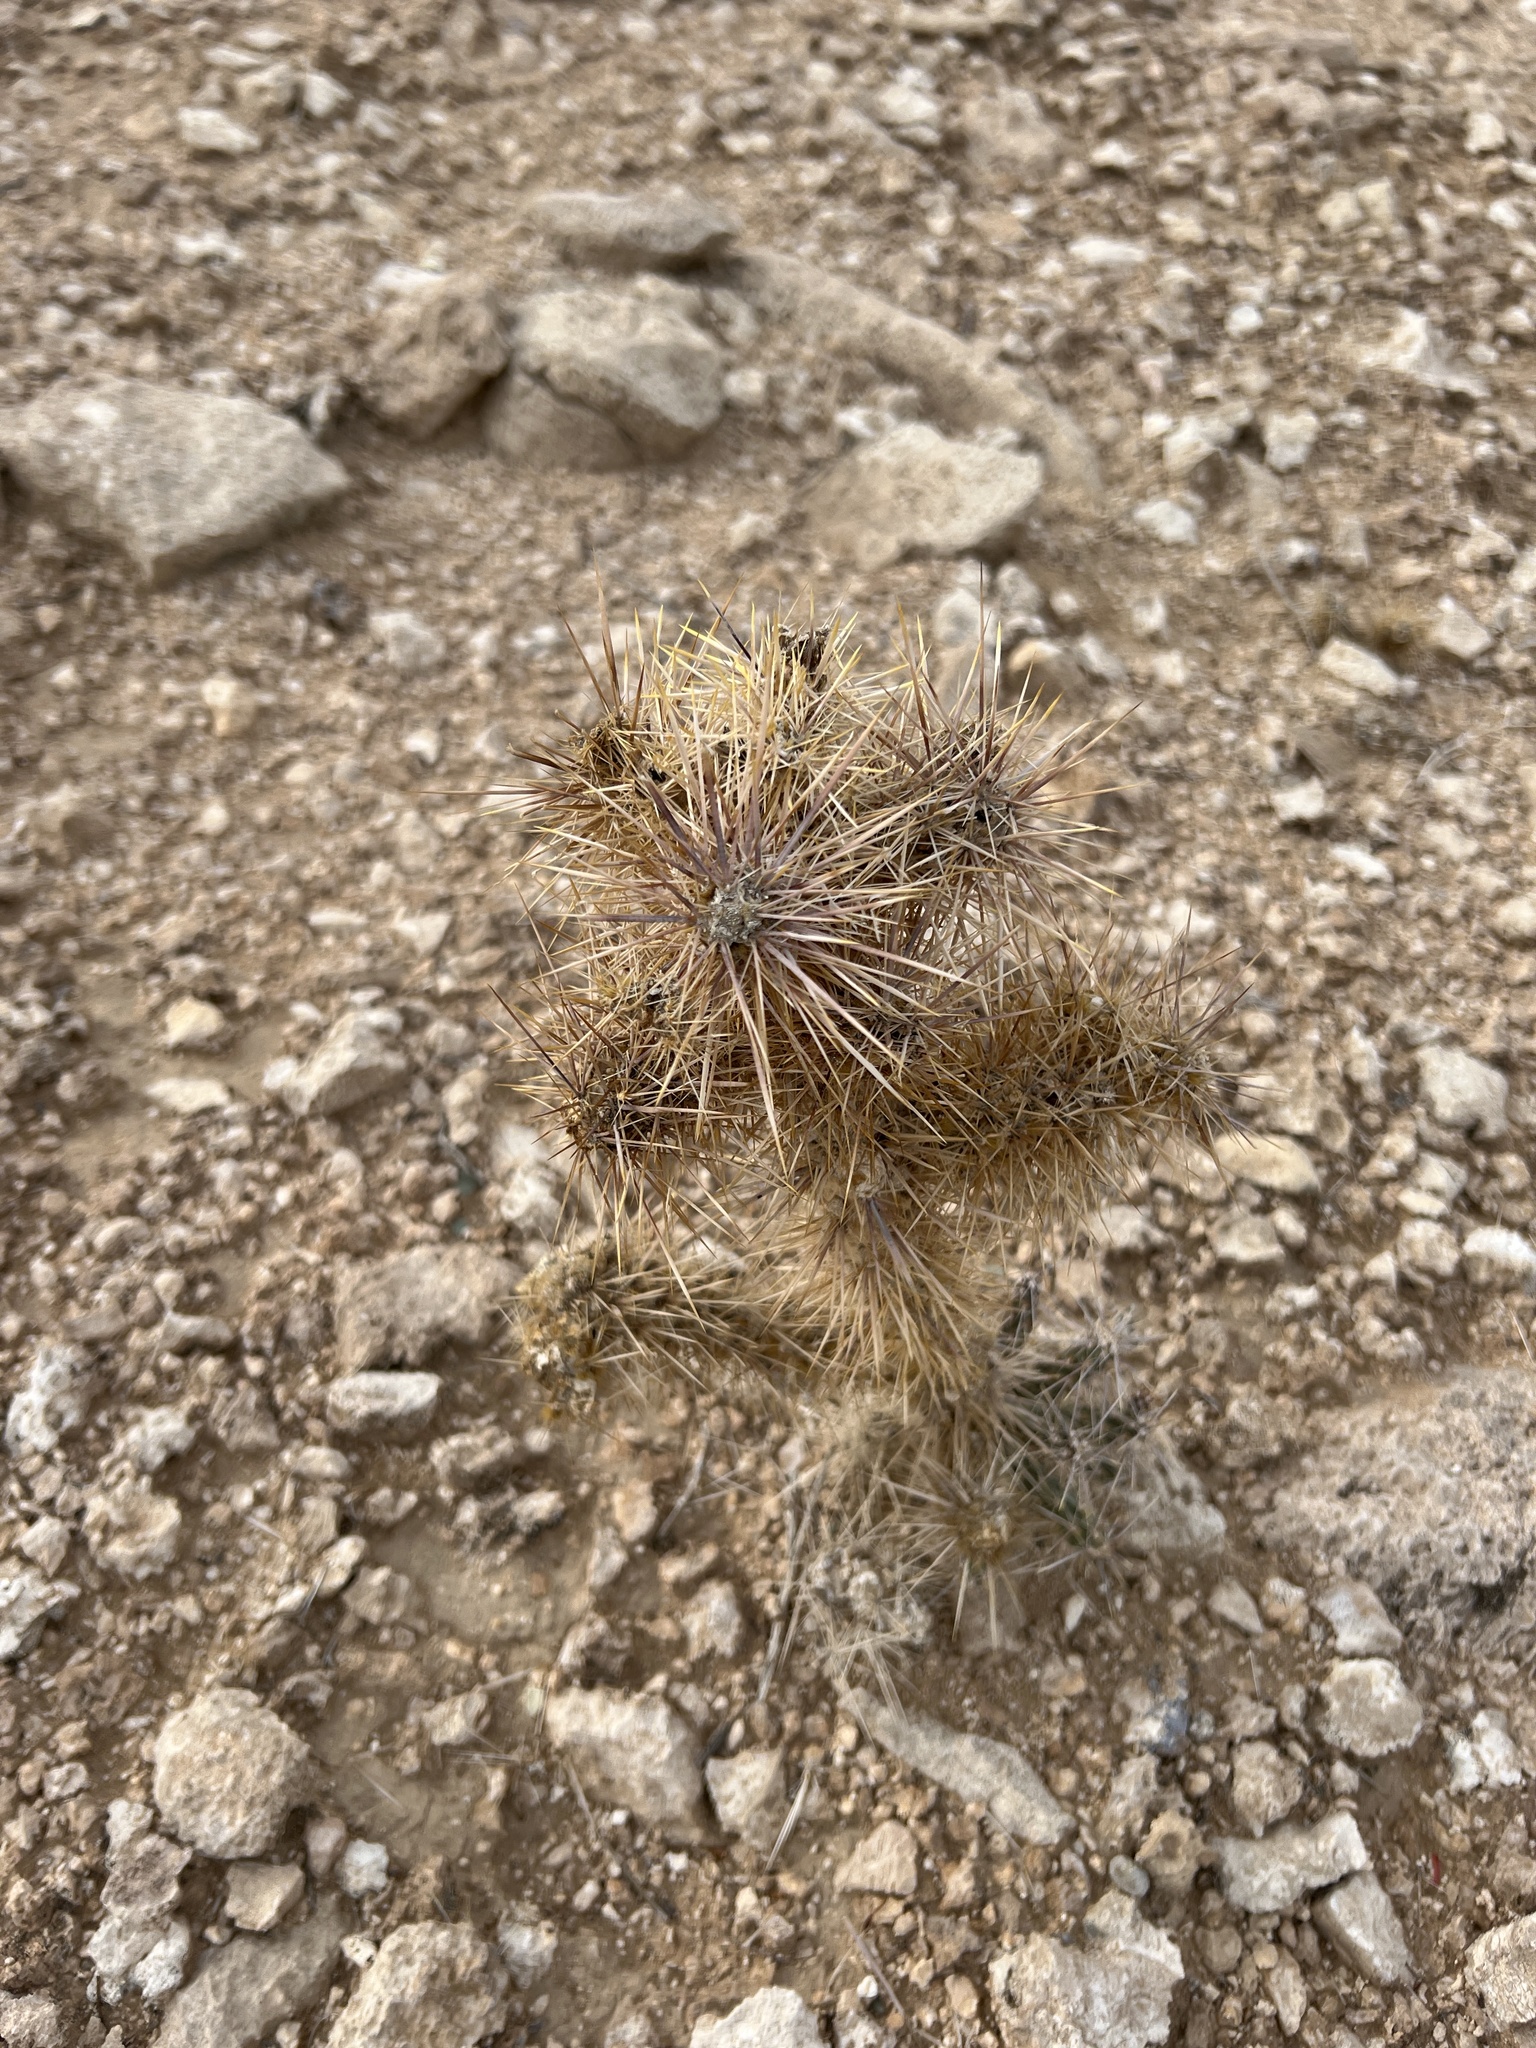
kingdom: Plantae
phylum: Tracheophyta
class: Magnoliopsida
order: Caryophyllales
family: Cactaceae
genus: Cylindropuntia
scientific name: Cylindropuntia echinocarpa
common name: Ground cholla
